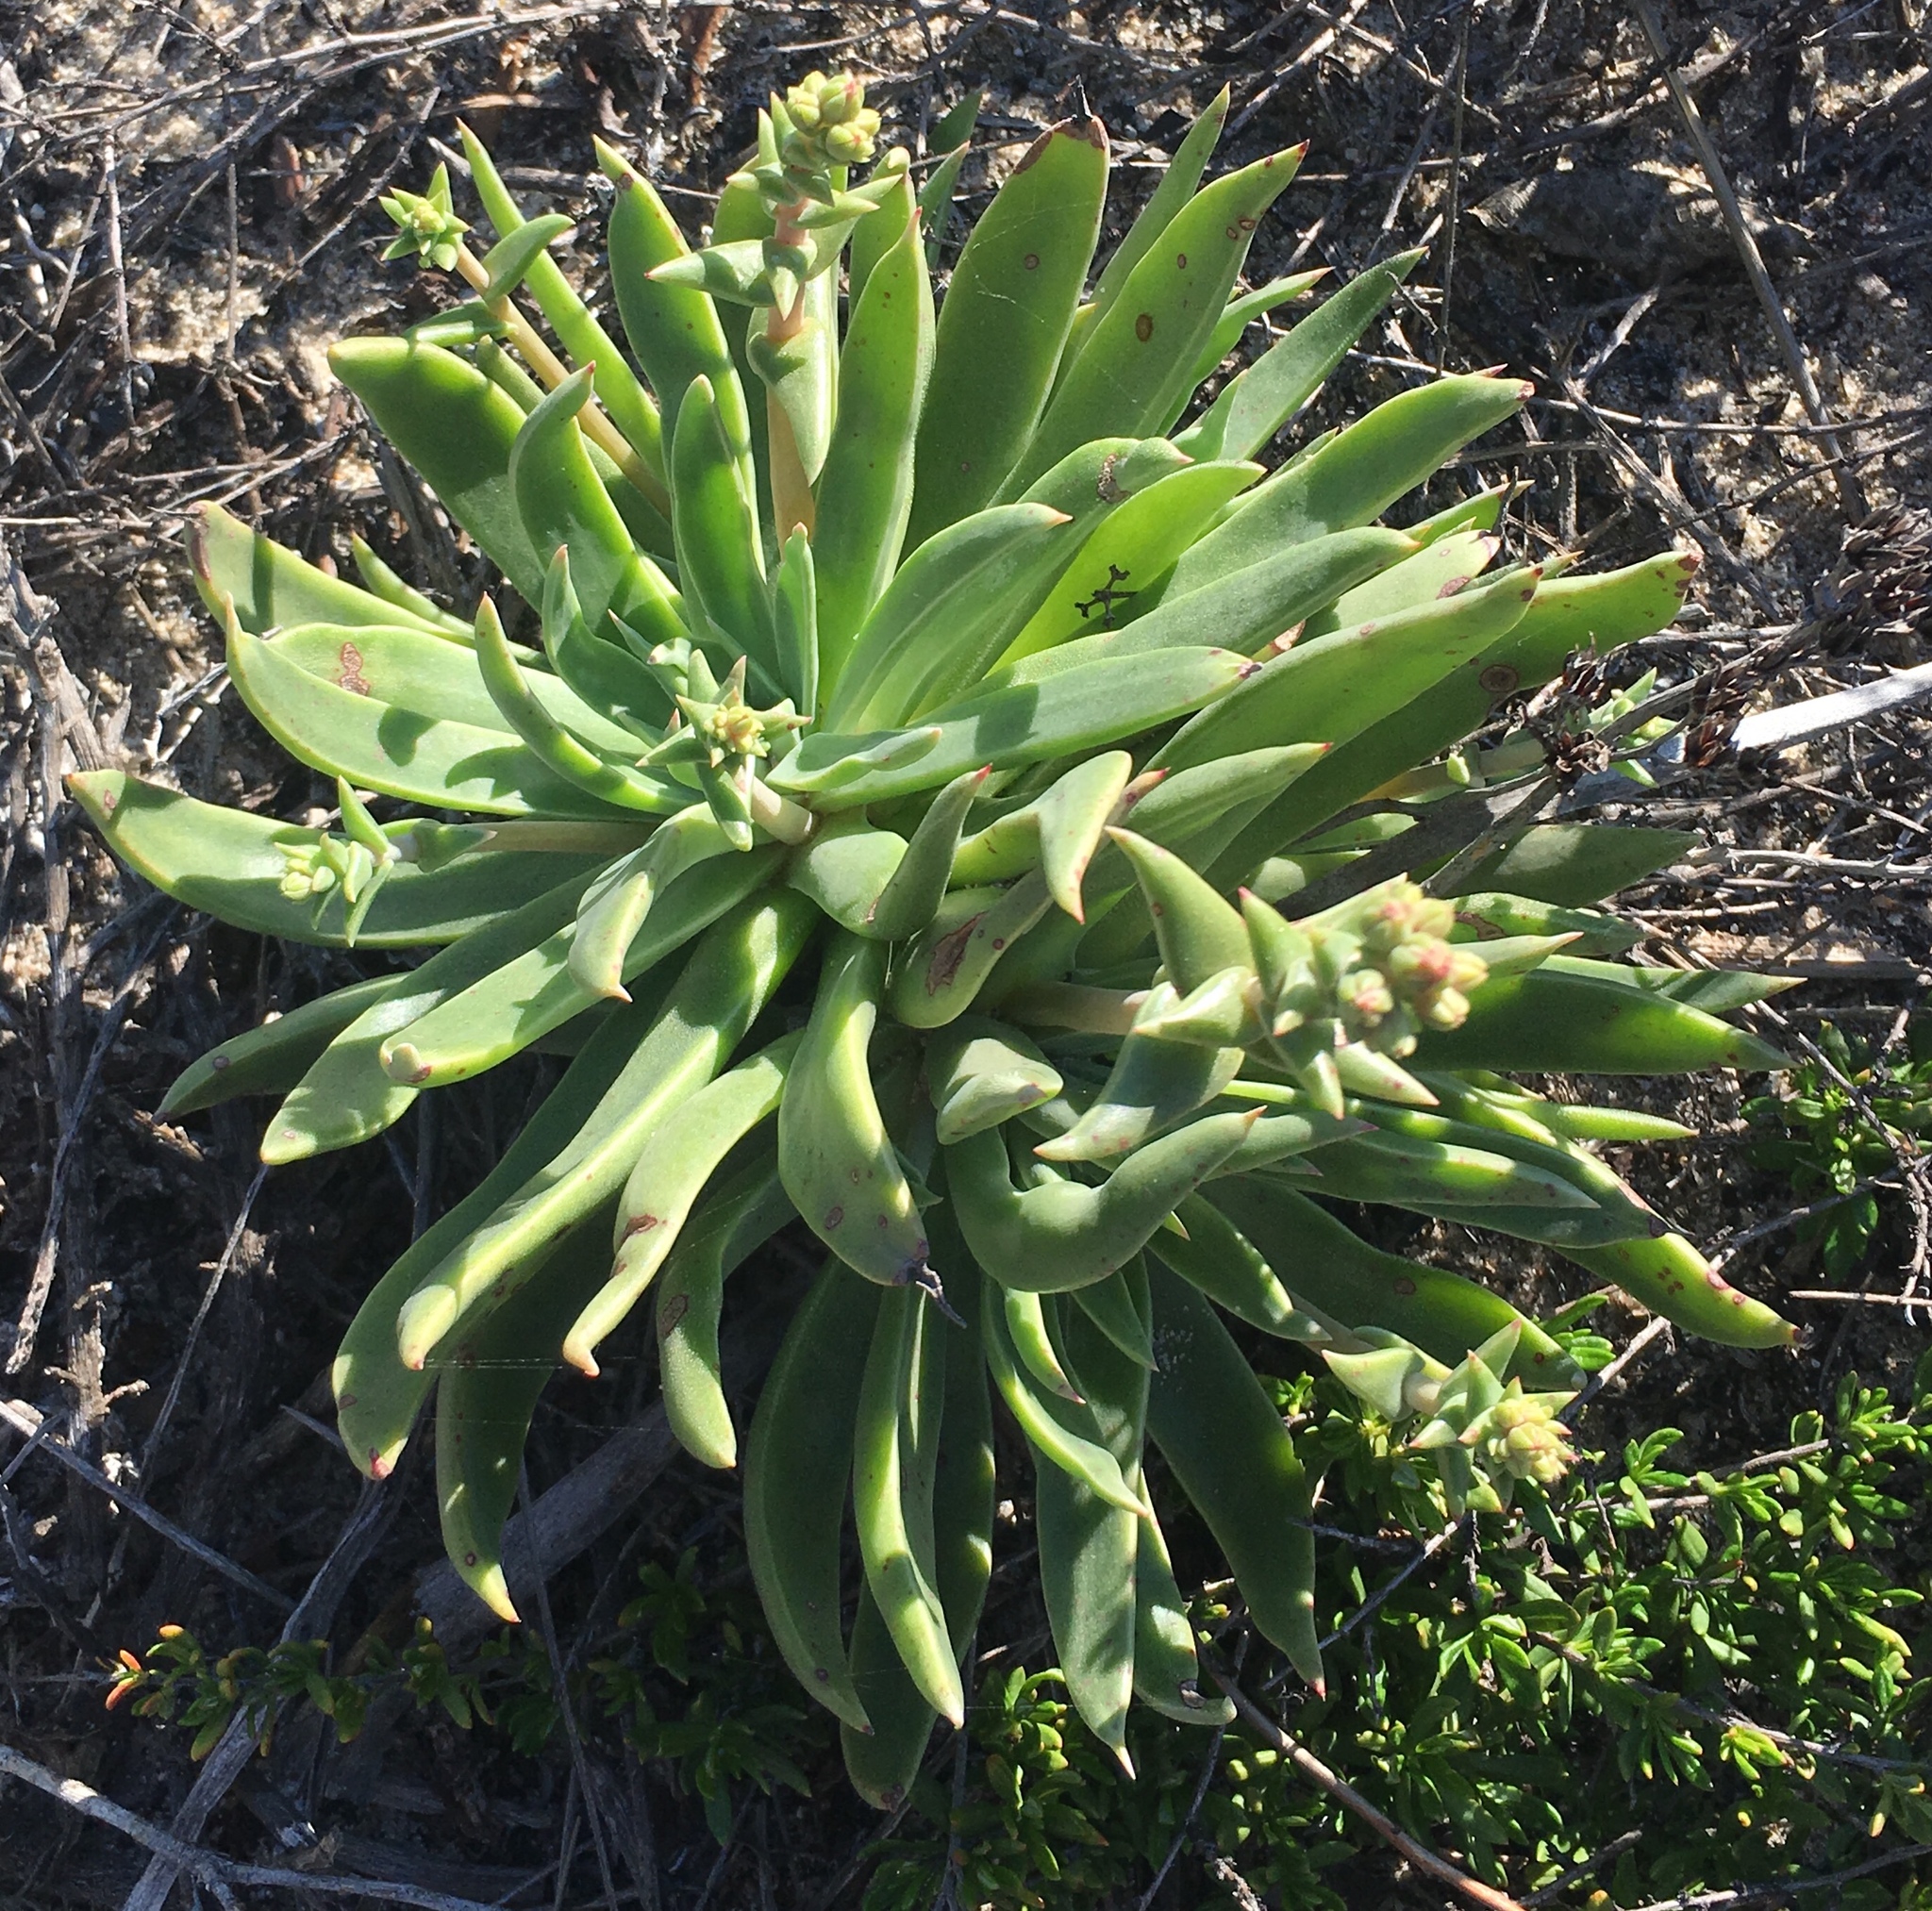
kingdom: Plantae
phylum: Tracheophyta
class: Magnoliopsida
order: Saxifragales
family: Crassulaceae
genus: Dudleya
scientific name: Dudleya caespitosa
